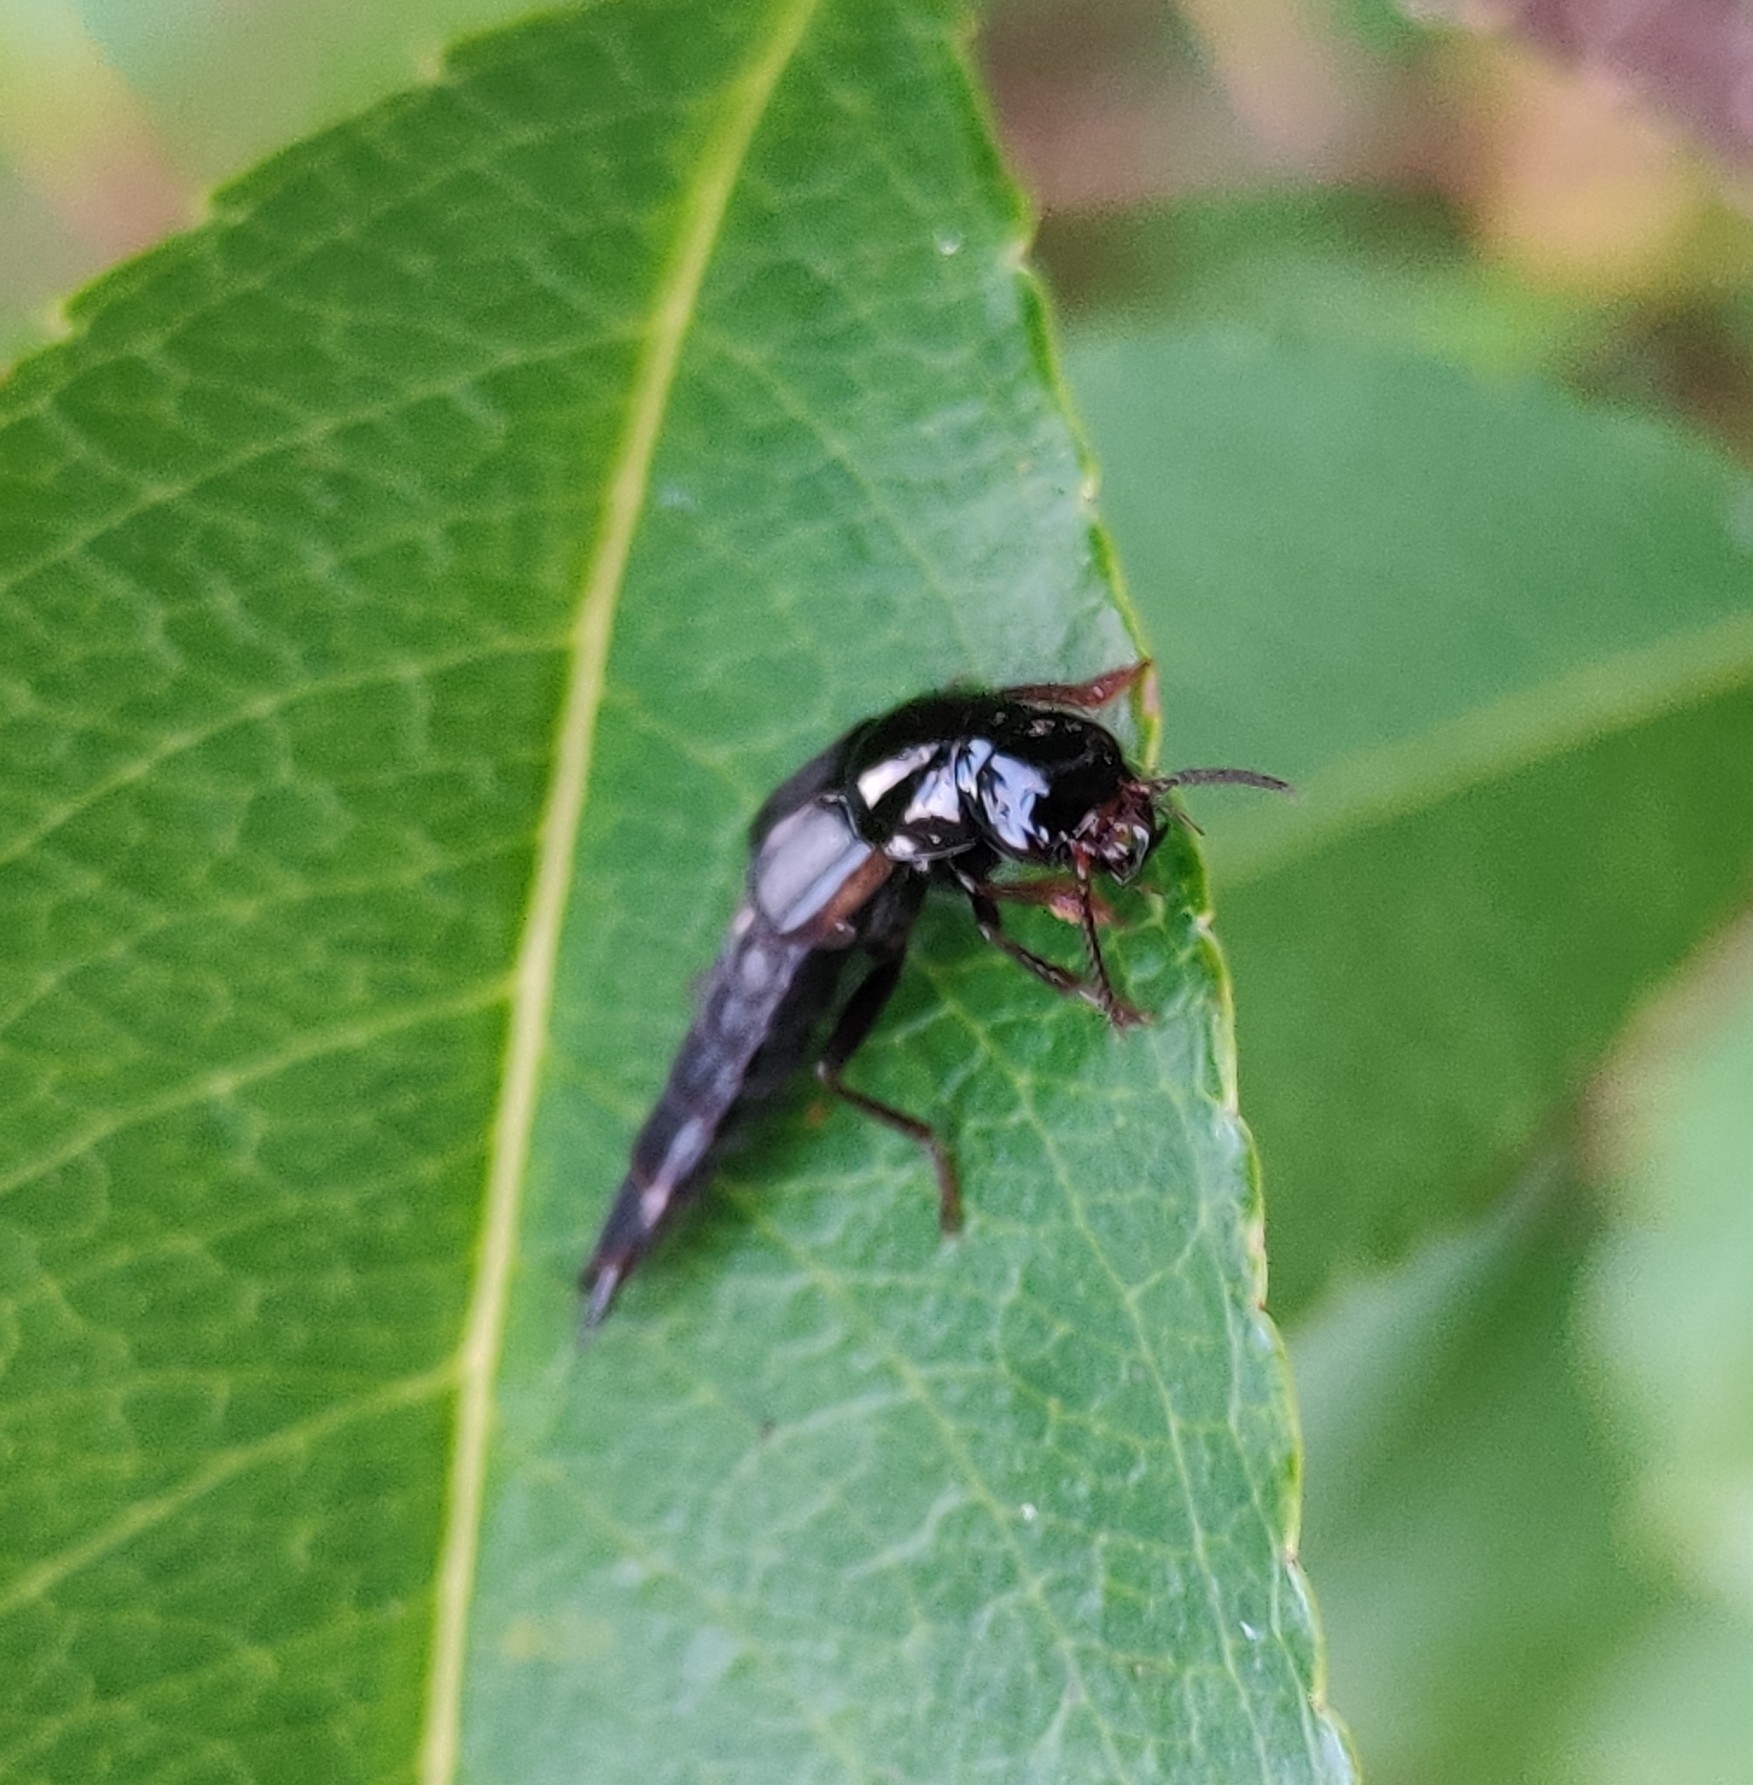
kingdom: Animalia
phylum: Arthropoda
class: Insecta
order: Coleoptera
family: Staphylinidae
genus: Quedius
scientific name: Quedius lateralis
